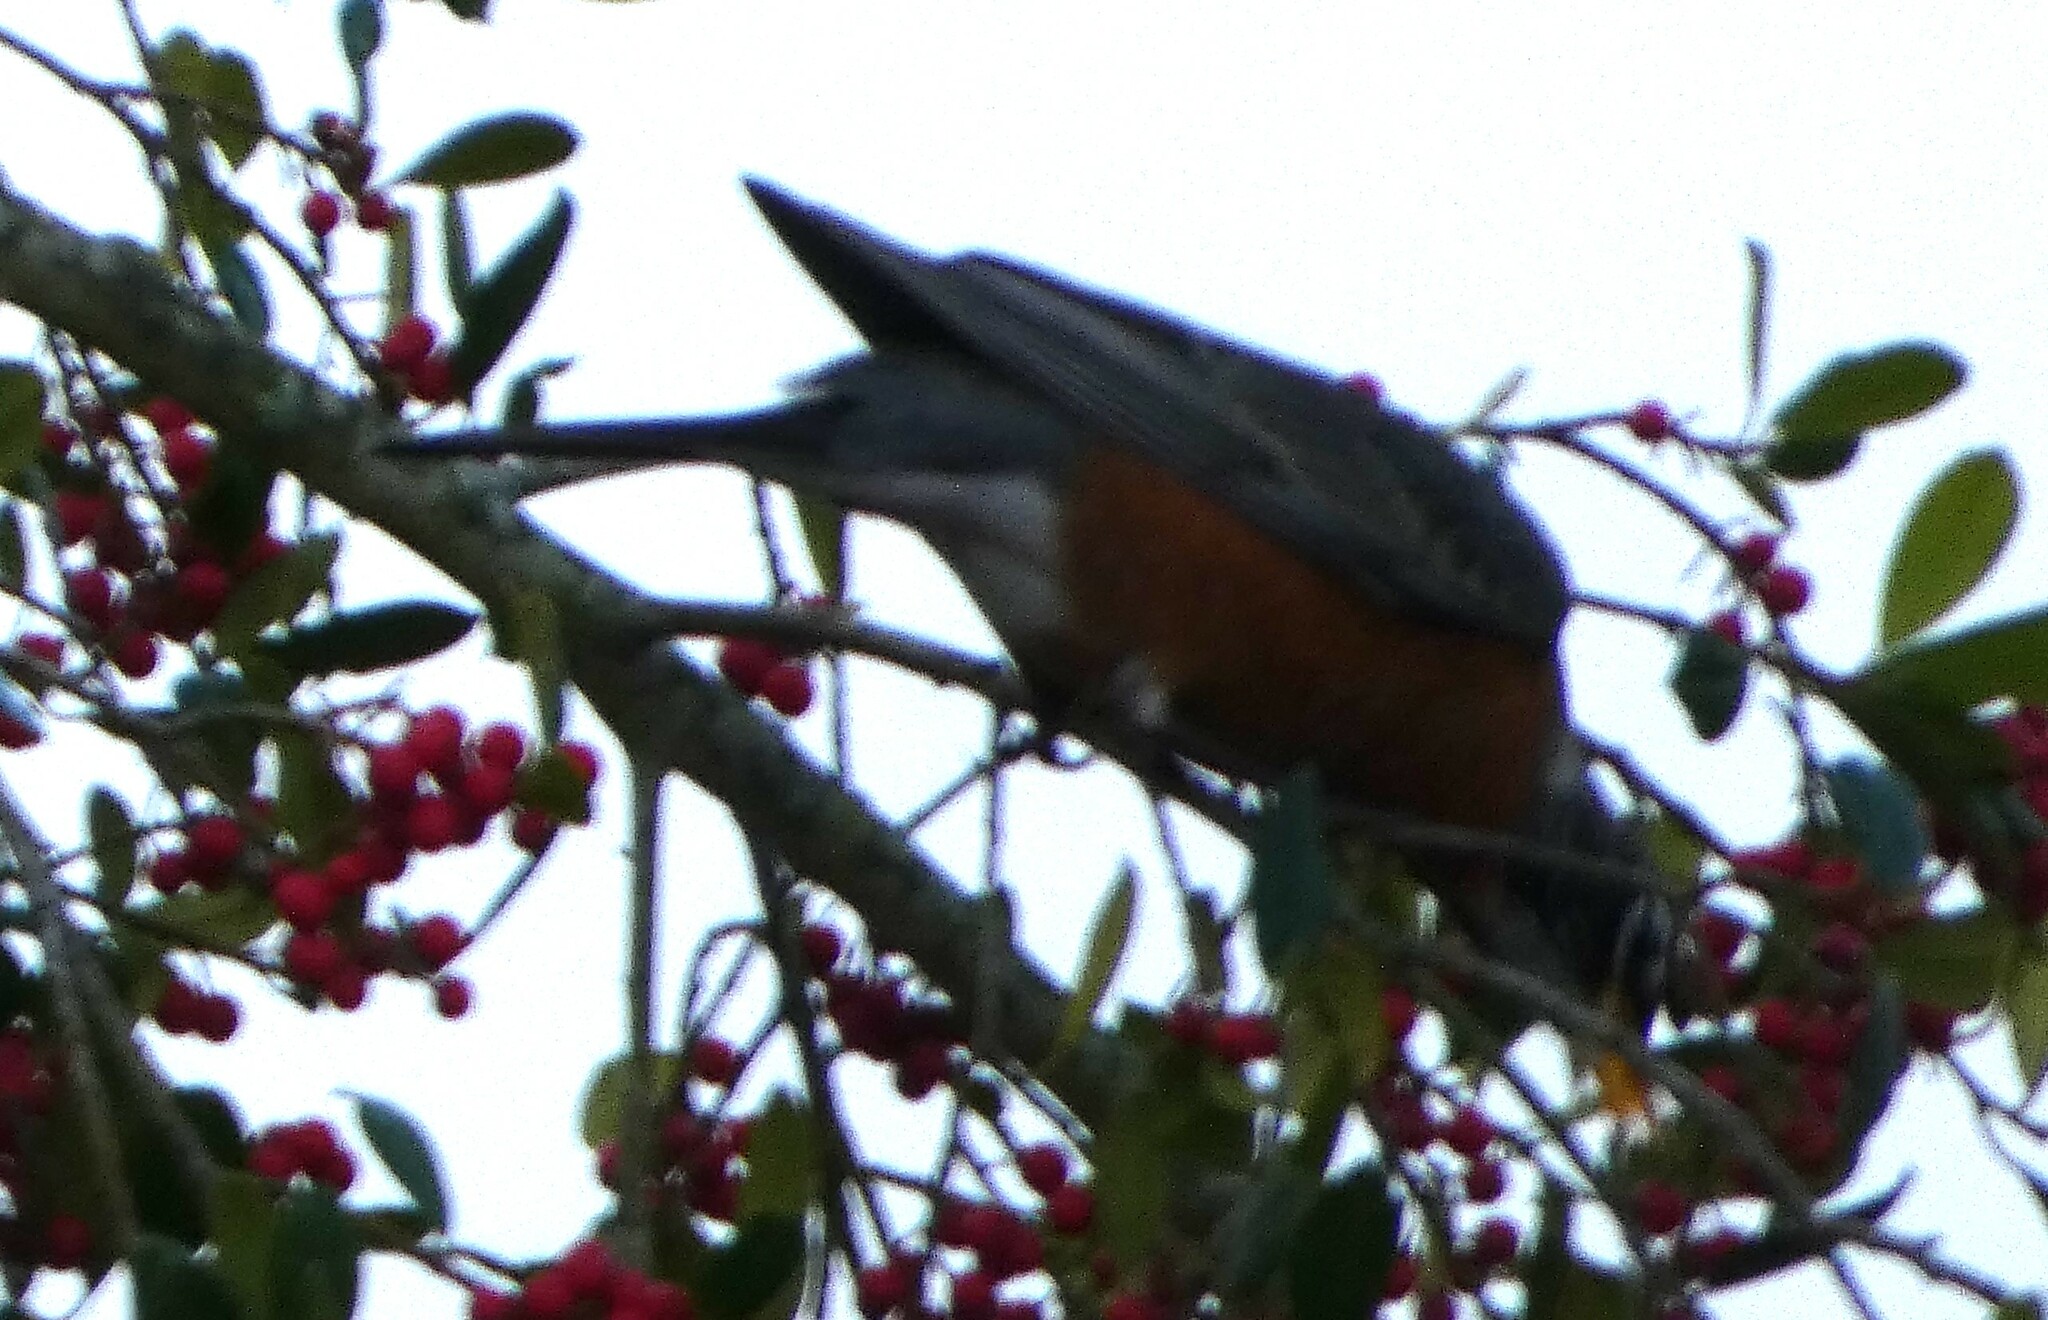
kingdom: Animalia
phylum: Chordata
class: Aves
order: Passeriformes
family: Turdidae
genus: Turdus
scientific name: Turdus migratorius
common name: American robin
